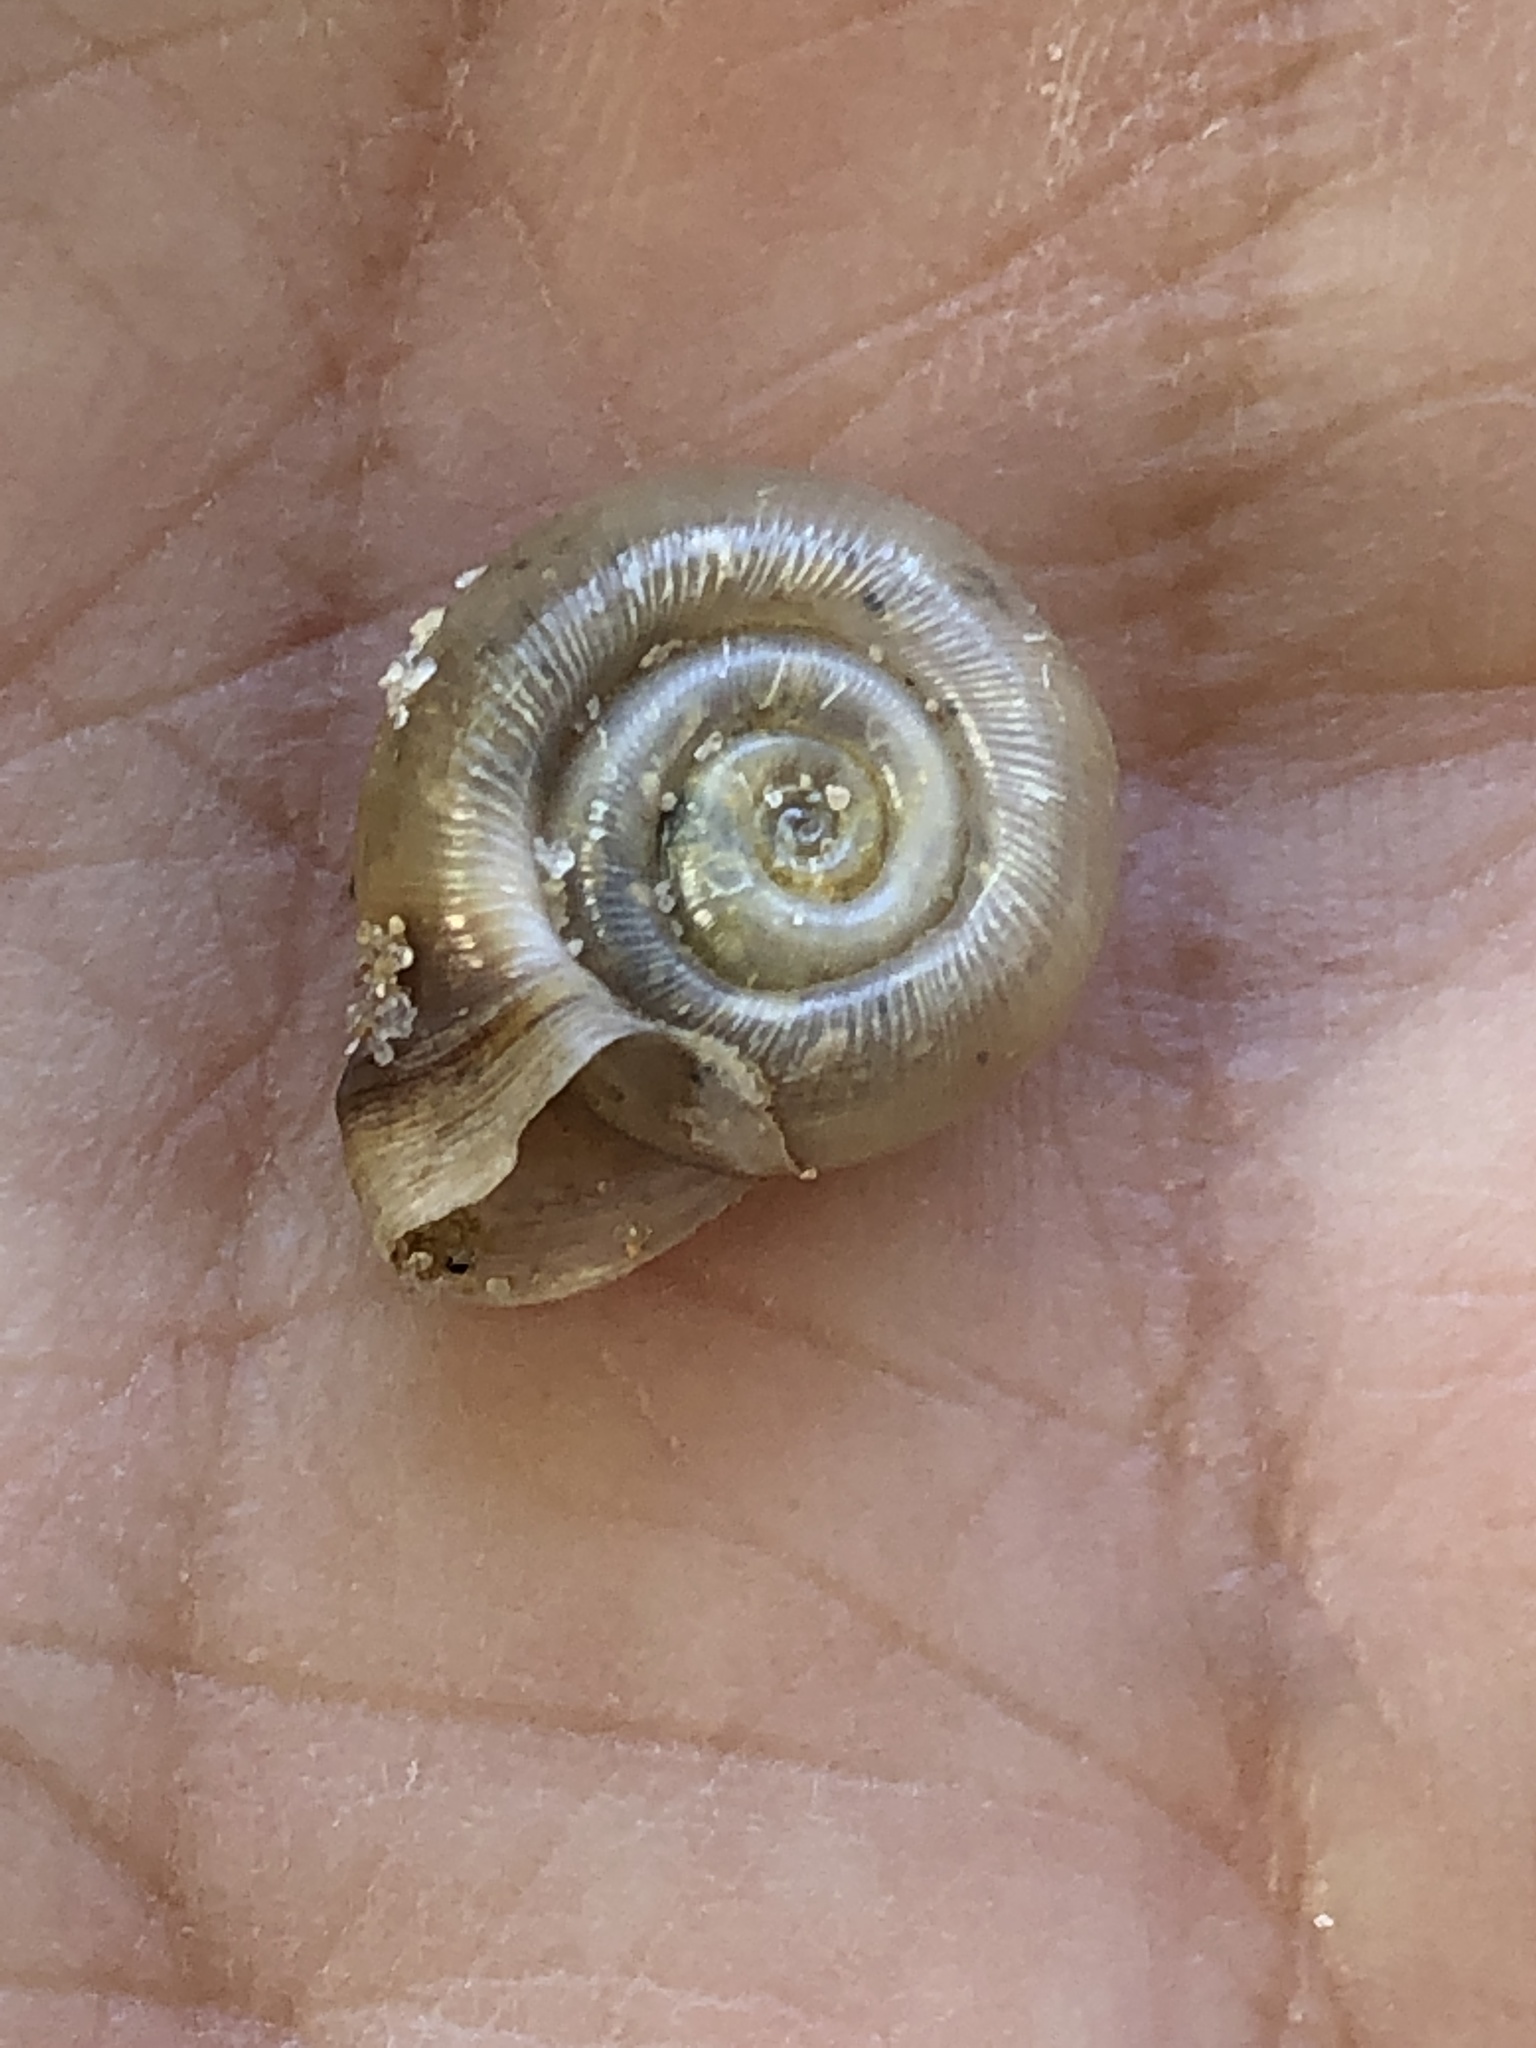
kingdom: Animalia
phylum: Mollusca
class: Gastropoda
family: Planorbidae
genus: Planorbella
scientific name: Planorbella campanulata
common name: Bellmouth ramshorn
